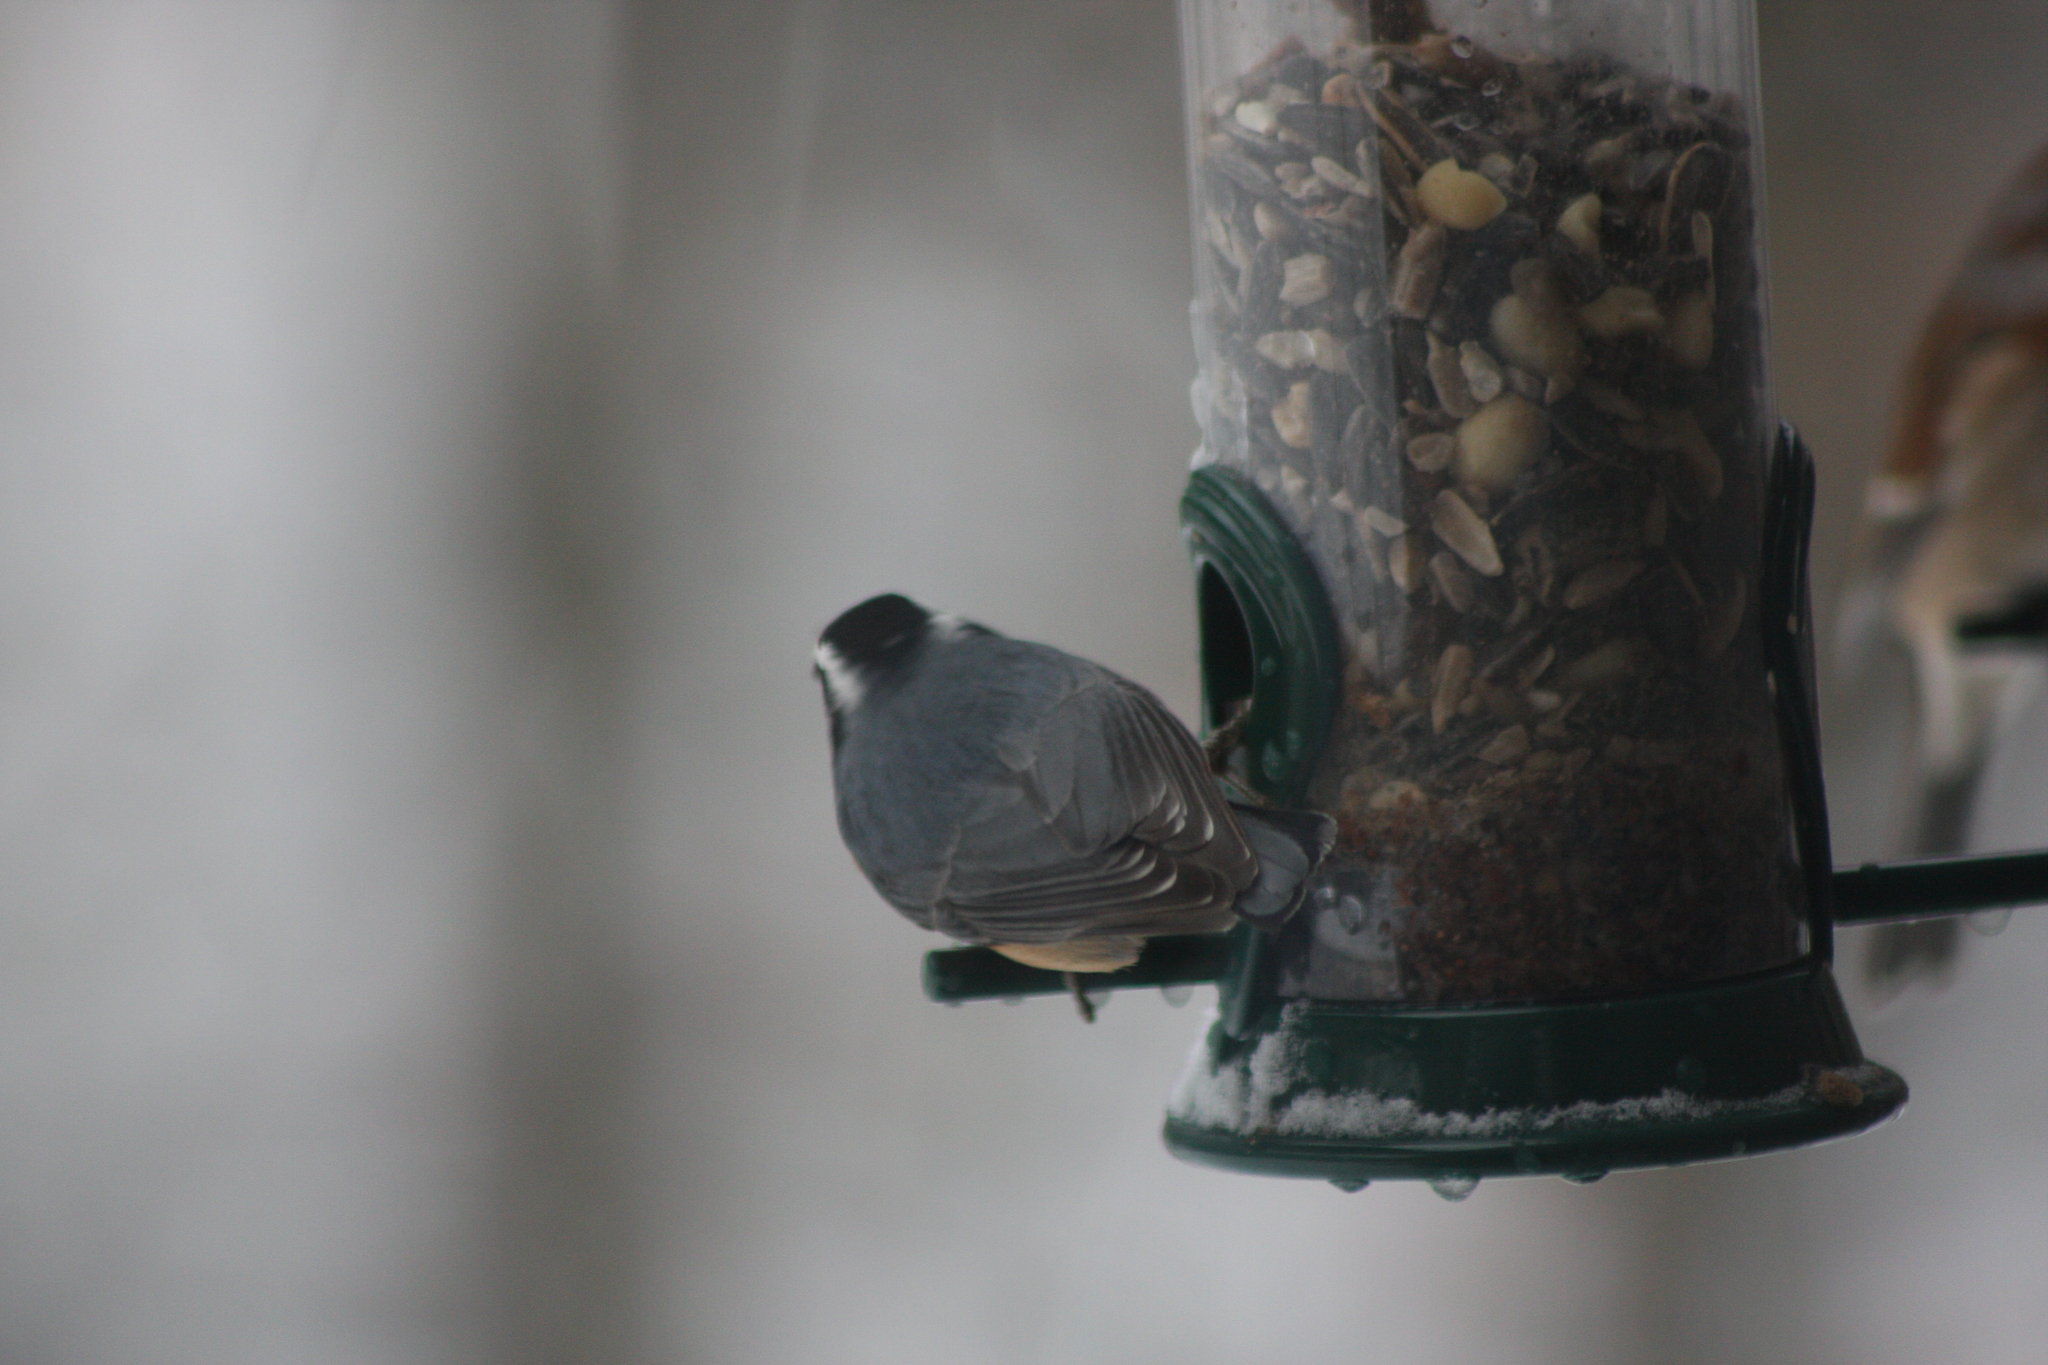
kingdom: Animalia
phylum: Chordata
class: Aves
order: Passeriformes
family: Sittidae
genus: Sitta
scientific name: Sitta canadensis
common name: Red-breasted nuthatch
